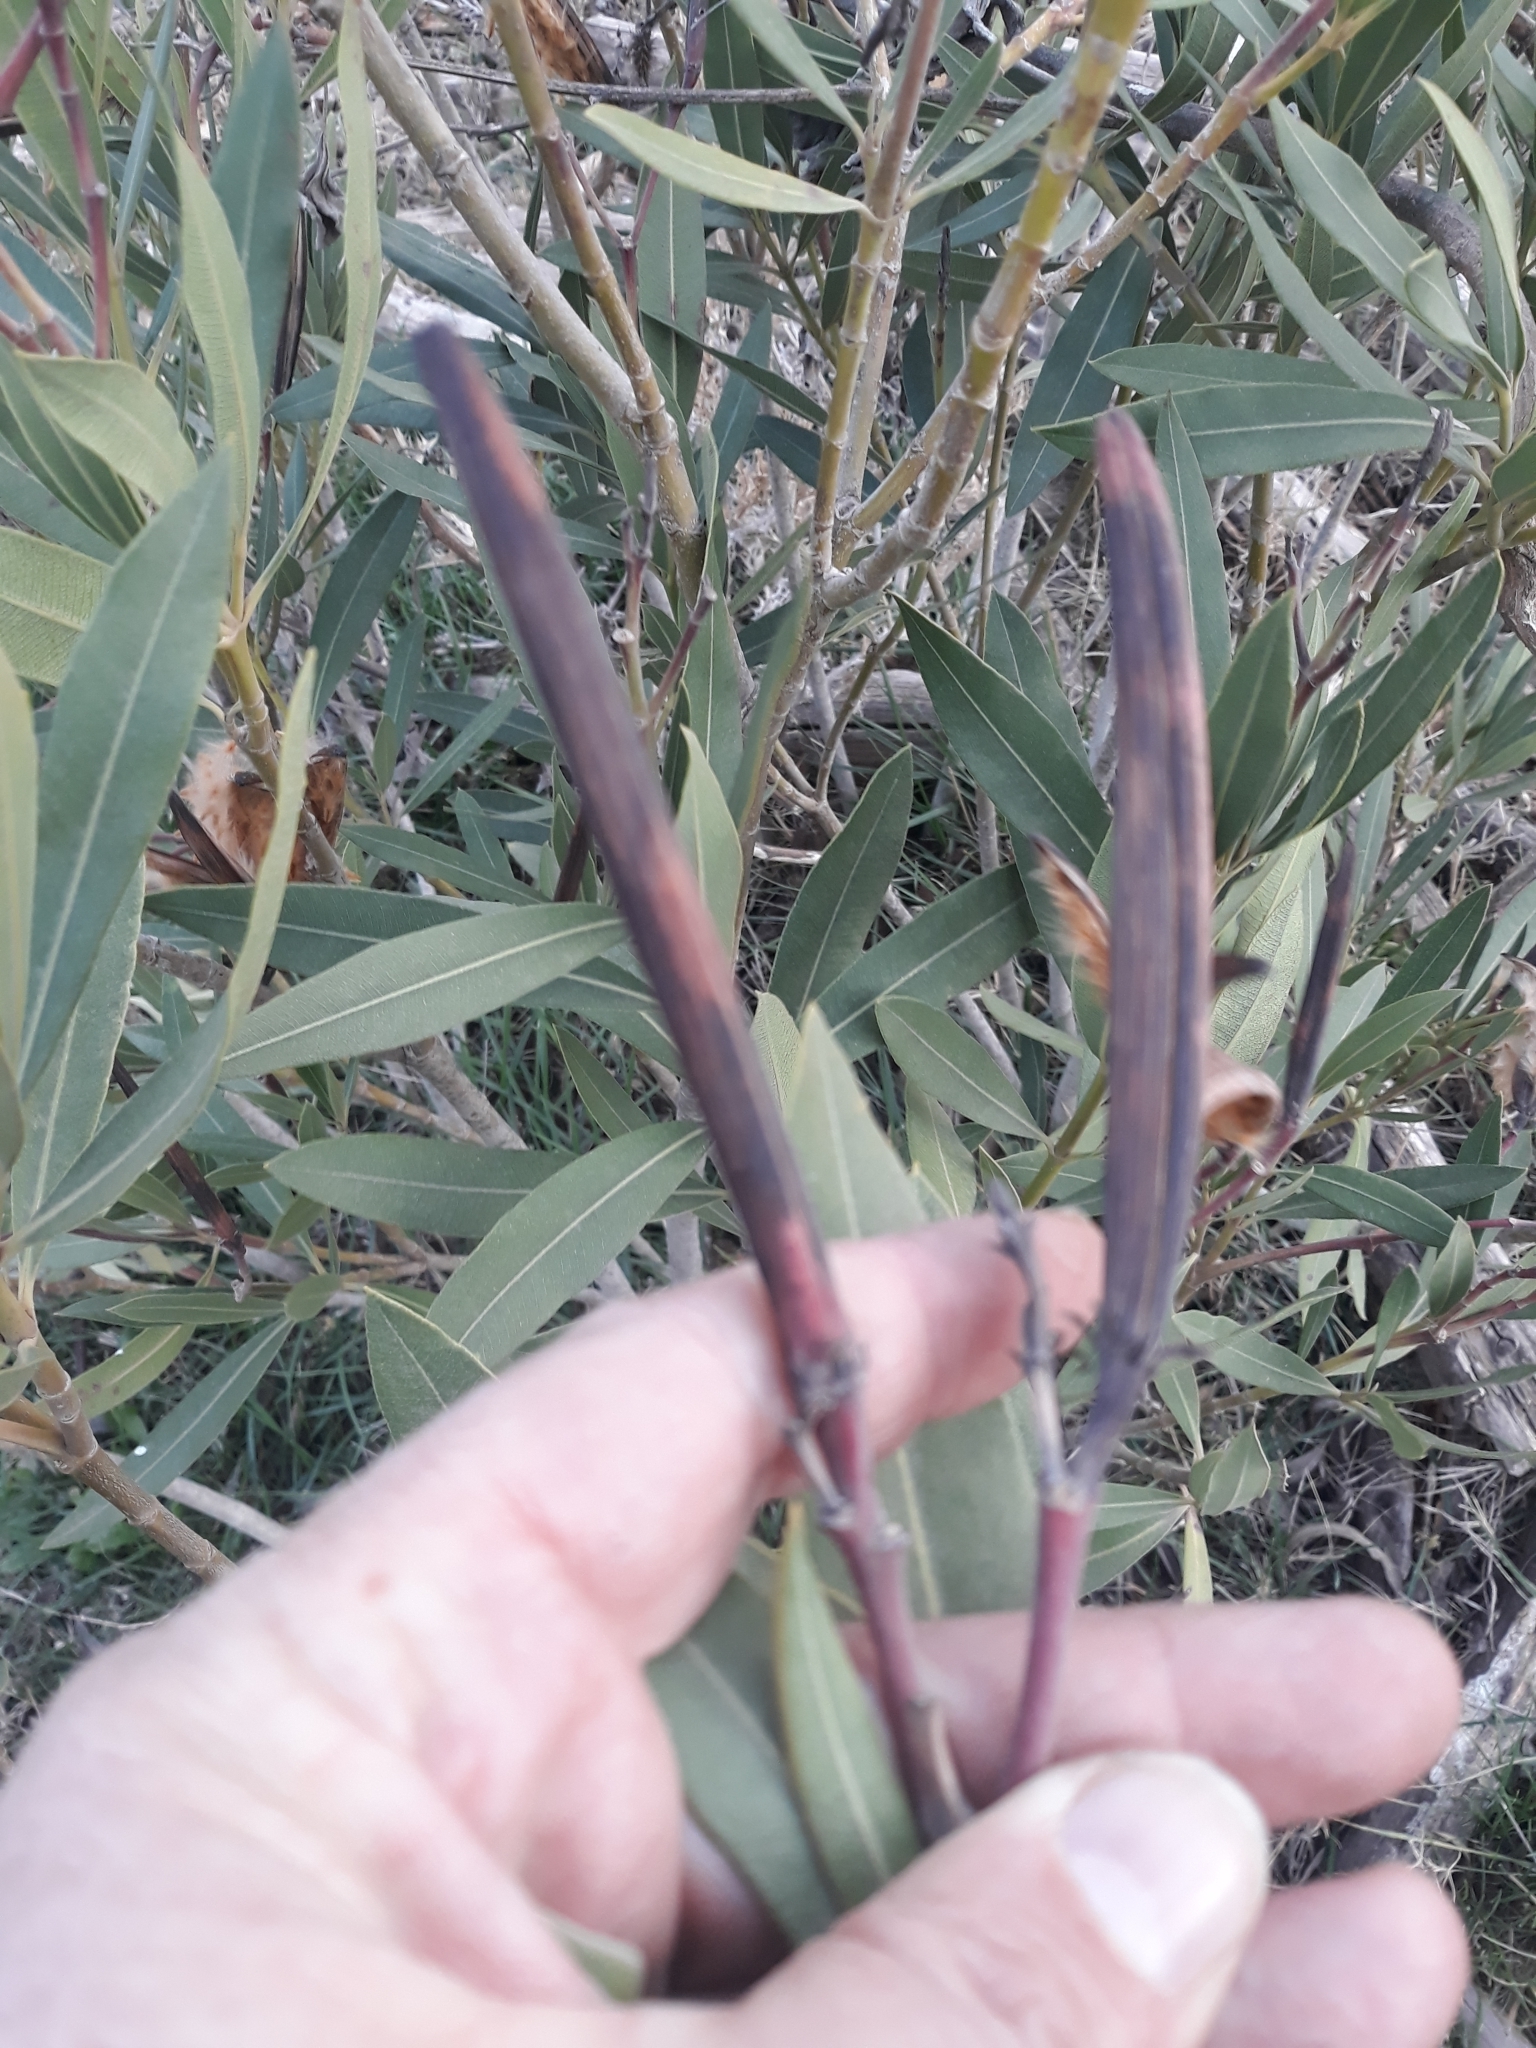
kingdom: Plantae
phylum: Tracheophyta
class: Magnoliopsida
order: Gentianales
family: Apocynaceae
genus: Nerium
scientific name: Nerium oleander
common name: Oleander
